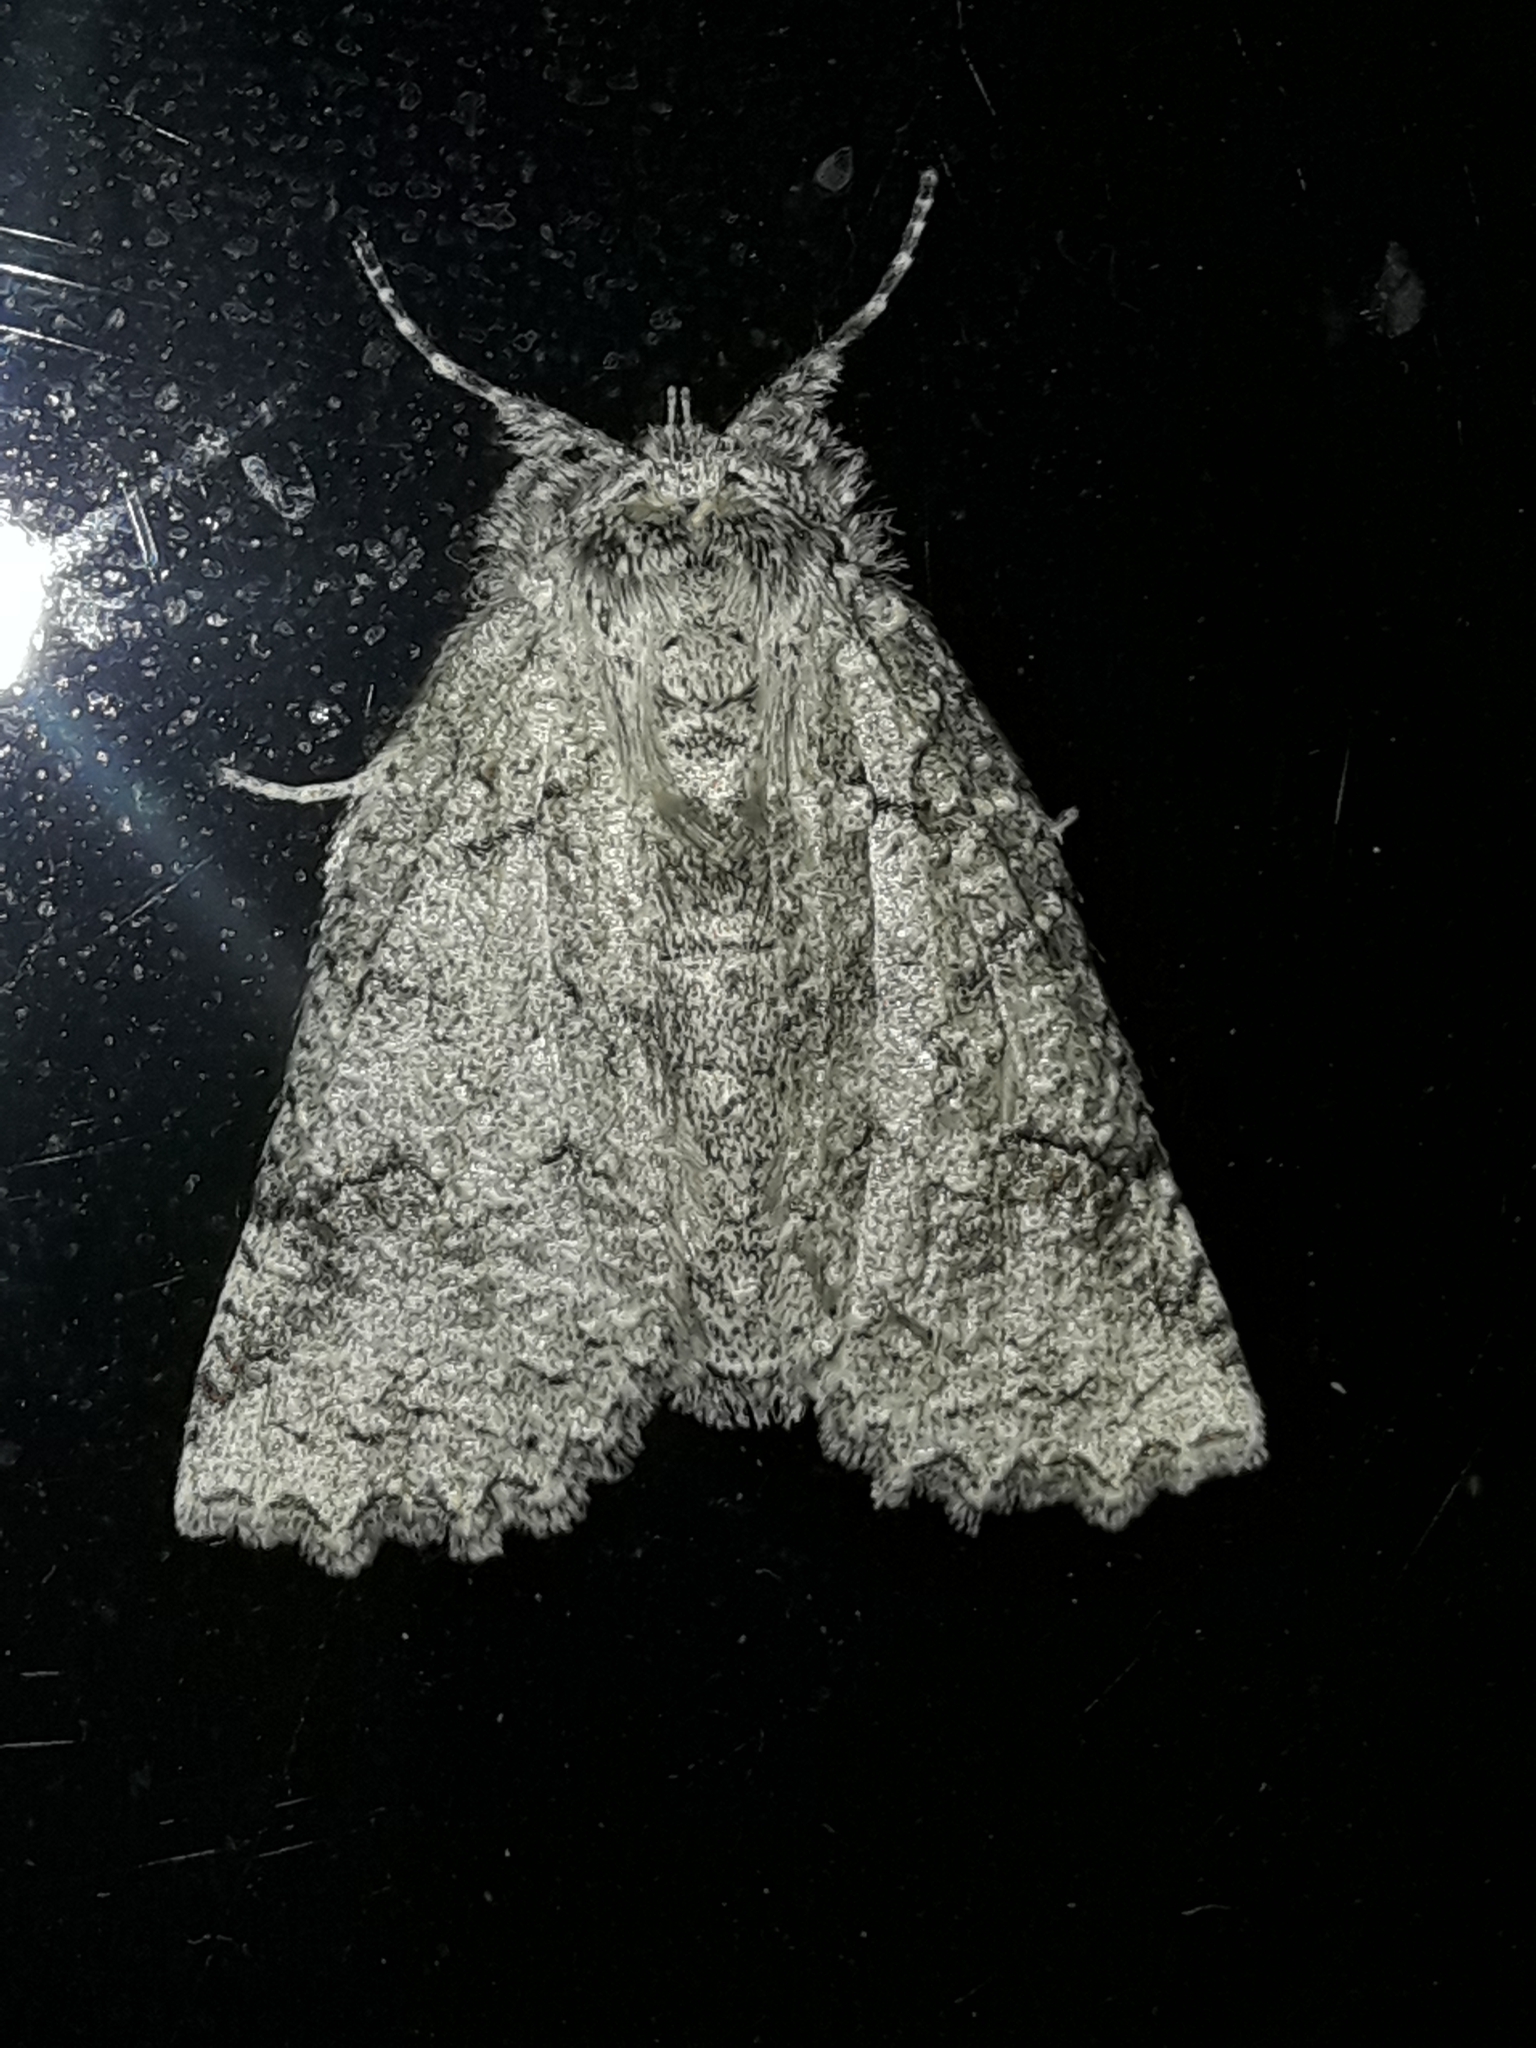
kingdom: Animalia
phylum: Arthropoda
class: Insecta
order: Lepidoptera
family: Geometridae
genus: Declana
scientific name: Declana floccosa
